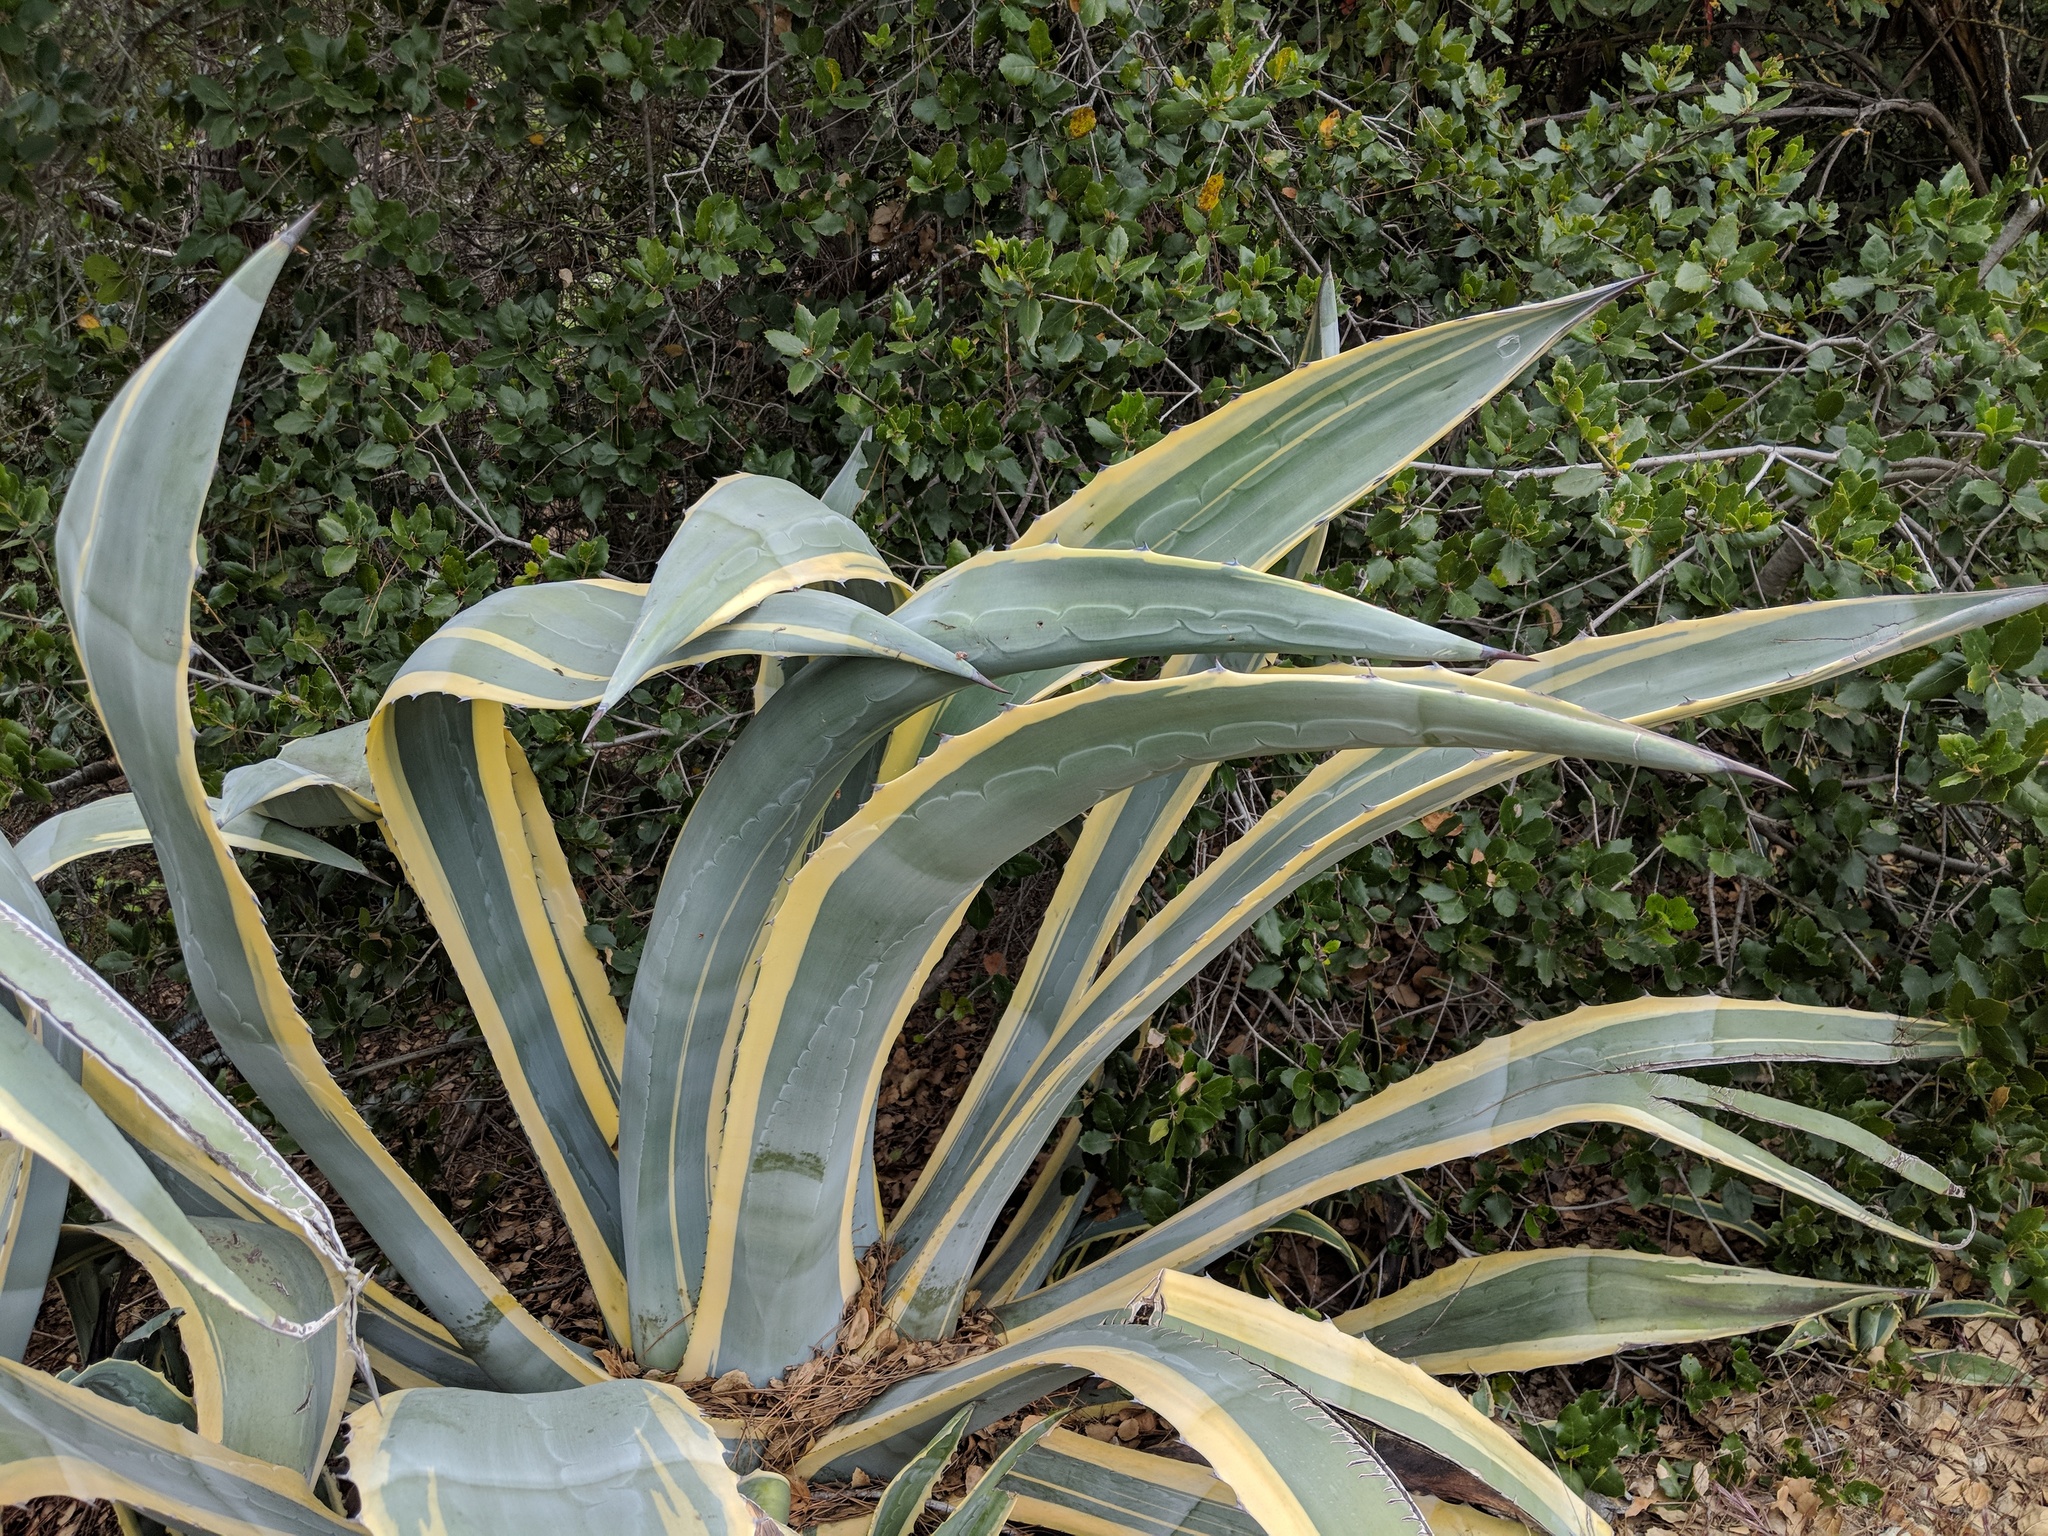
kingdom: Plantae
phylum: Tracheophyta
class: Liliopsida
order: Asparagales
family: Asparagaceae
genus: Agave
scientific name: Agave americana
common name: Centuryplant
